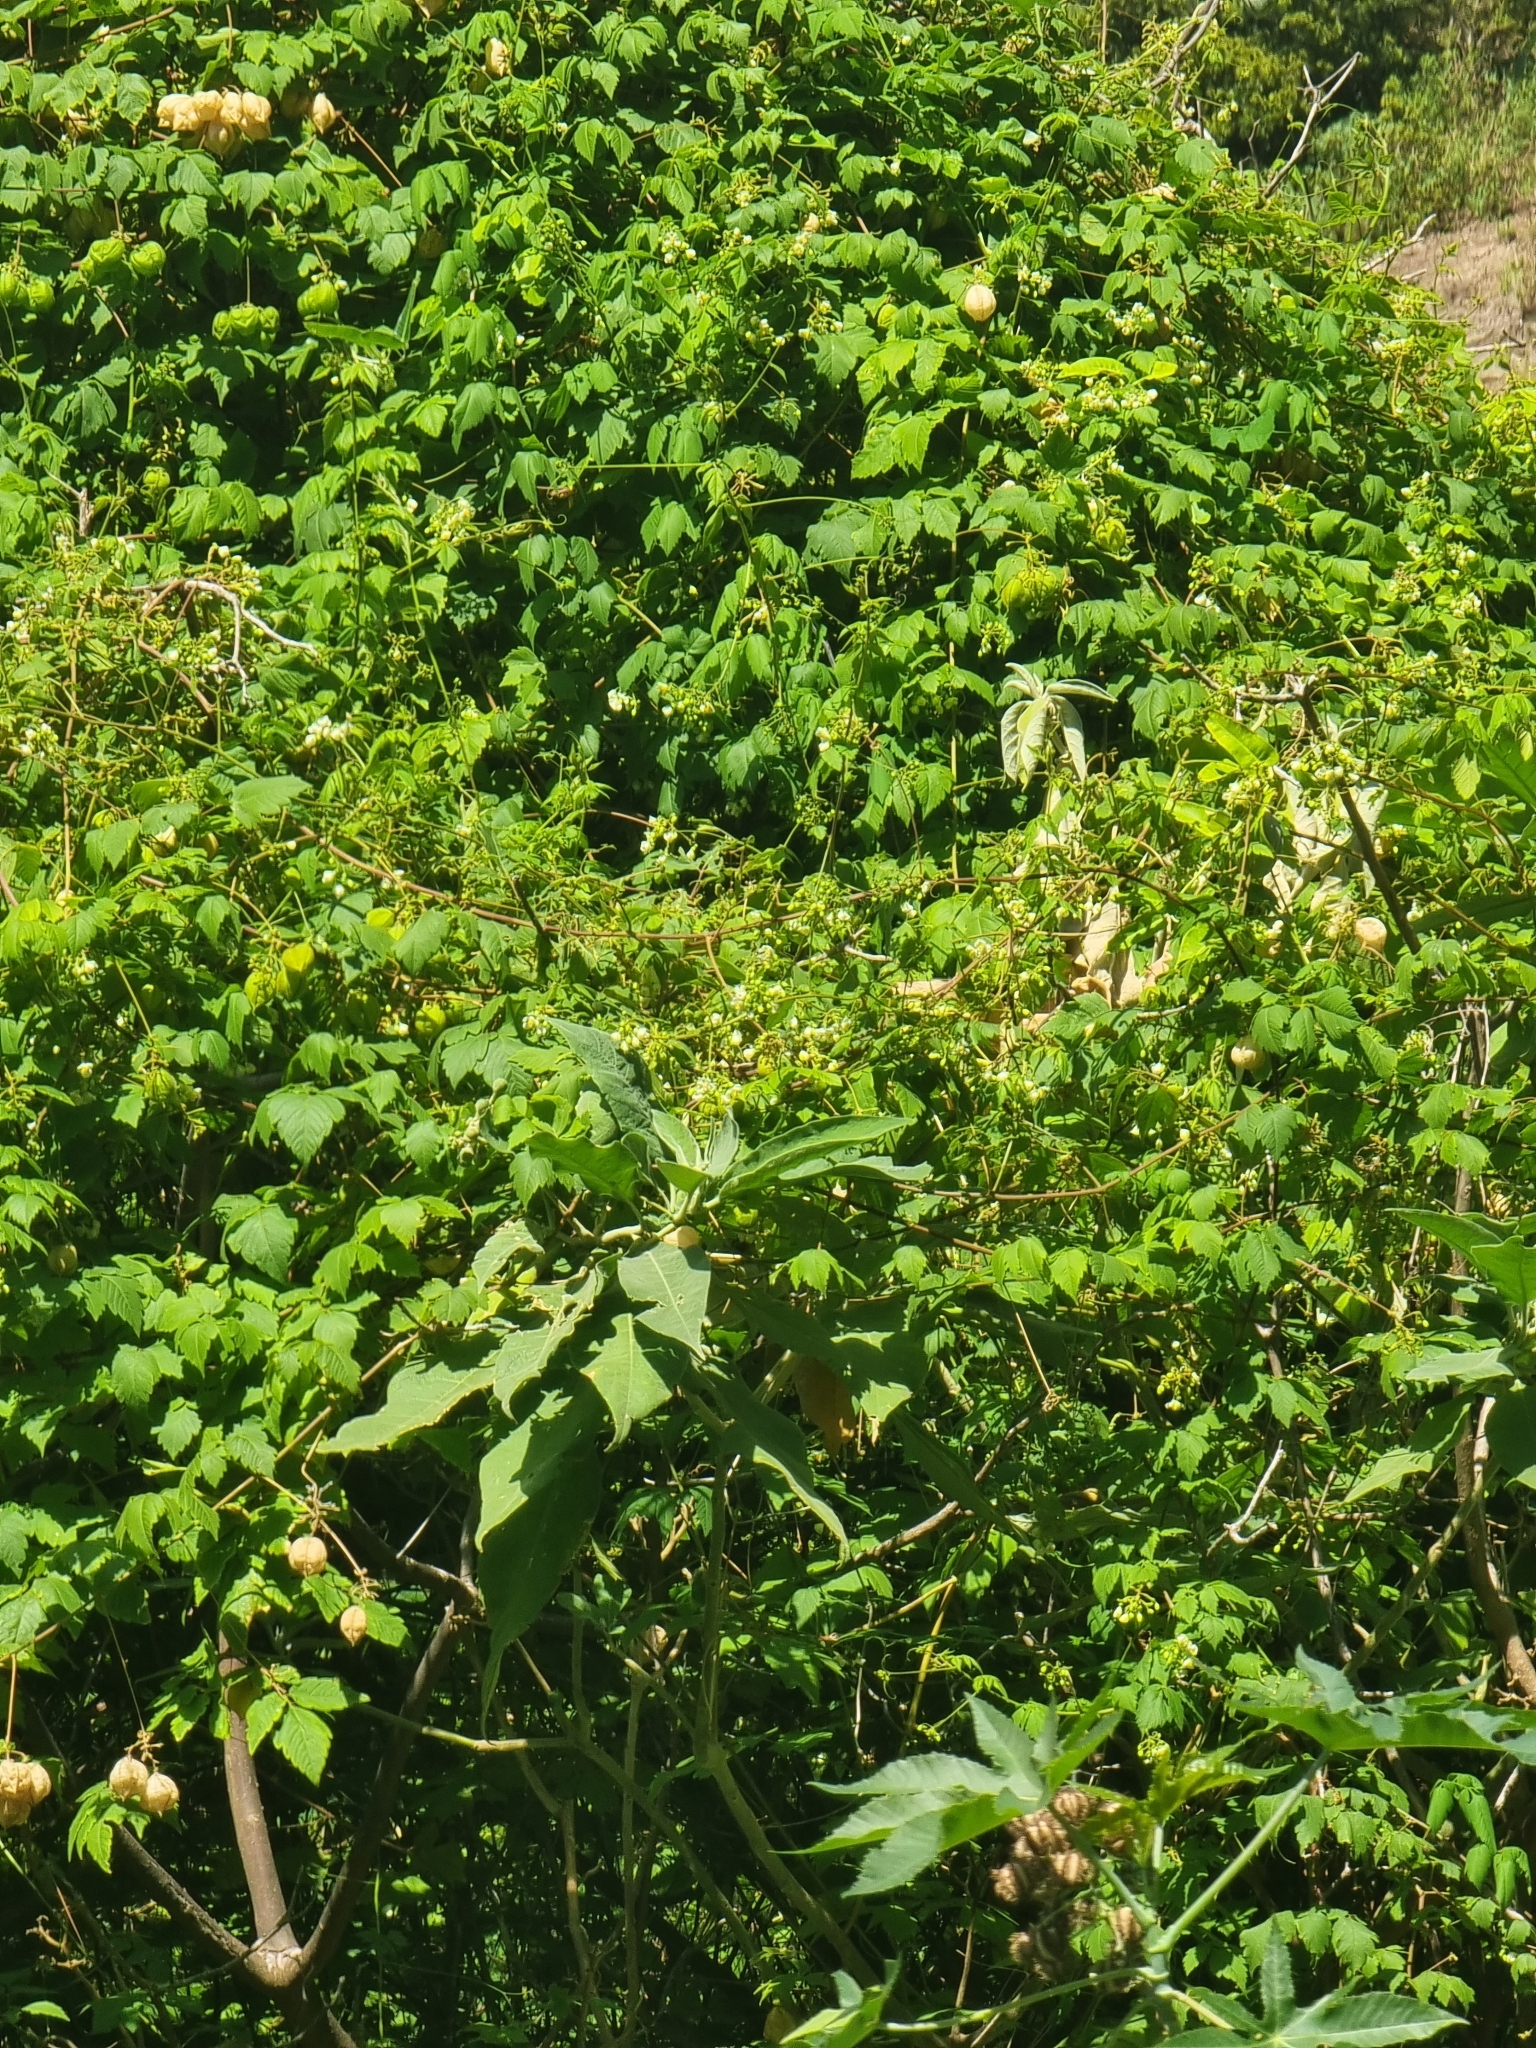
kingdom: Plantae
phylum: Tracheophyta
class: Magnoliopsida
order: Sapindales
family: Sapindaceae
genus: Cardiospermum
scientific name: Cardiospermum grandiflorum
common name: Balloon vine
